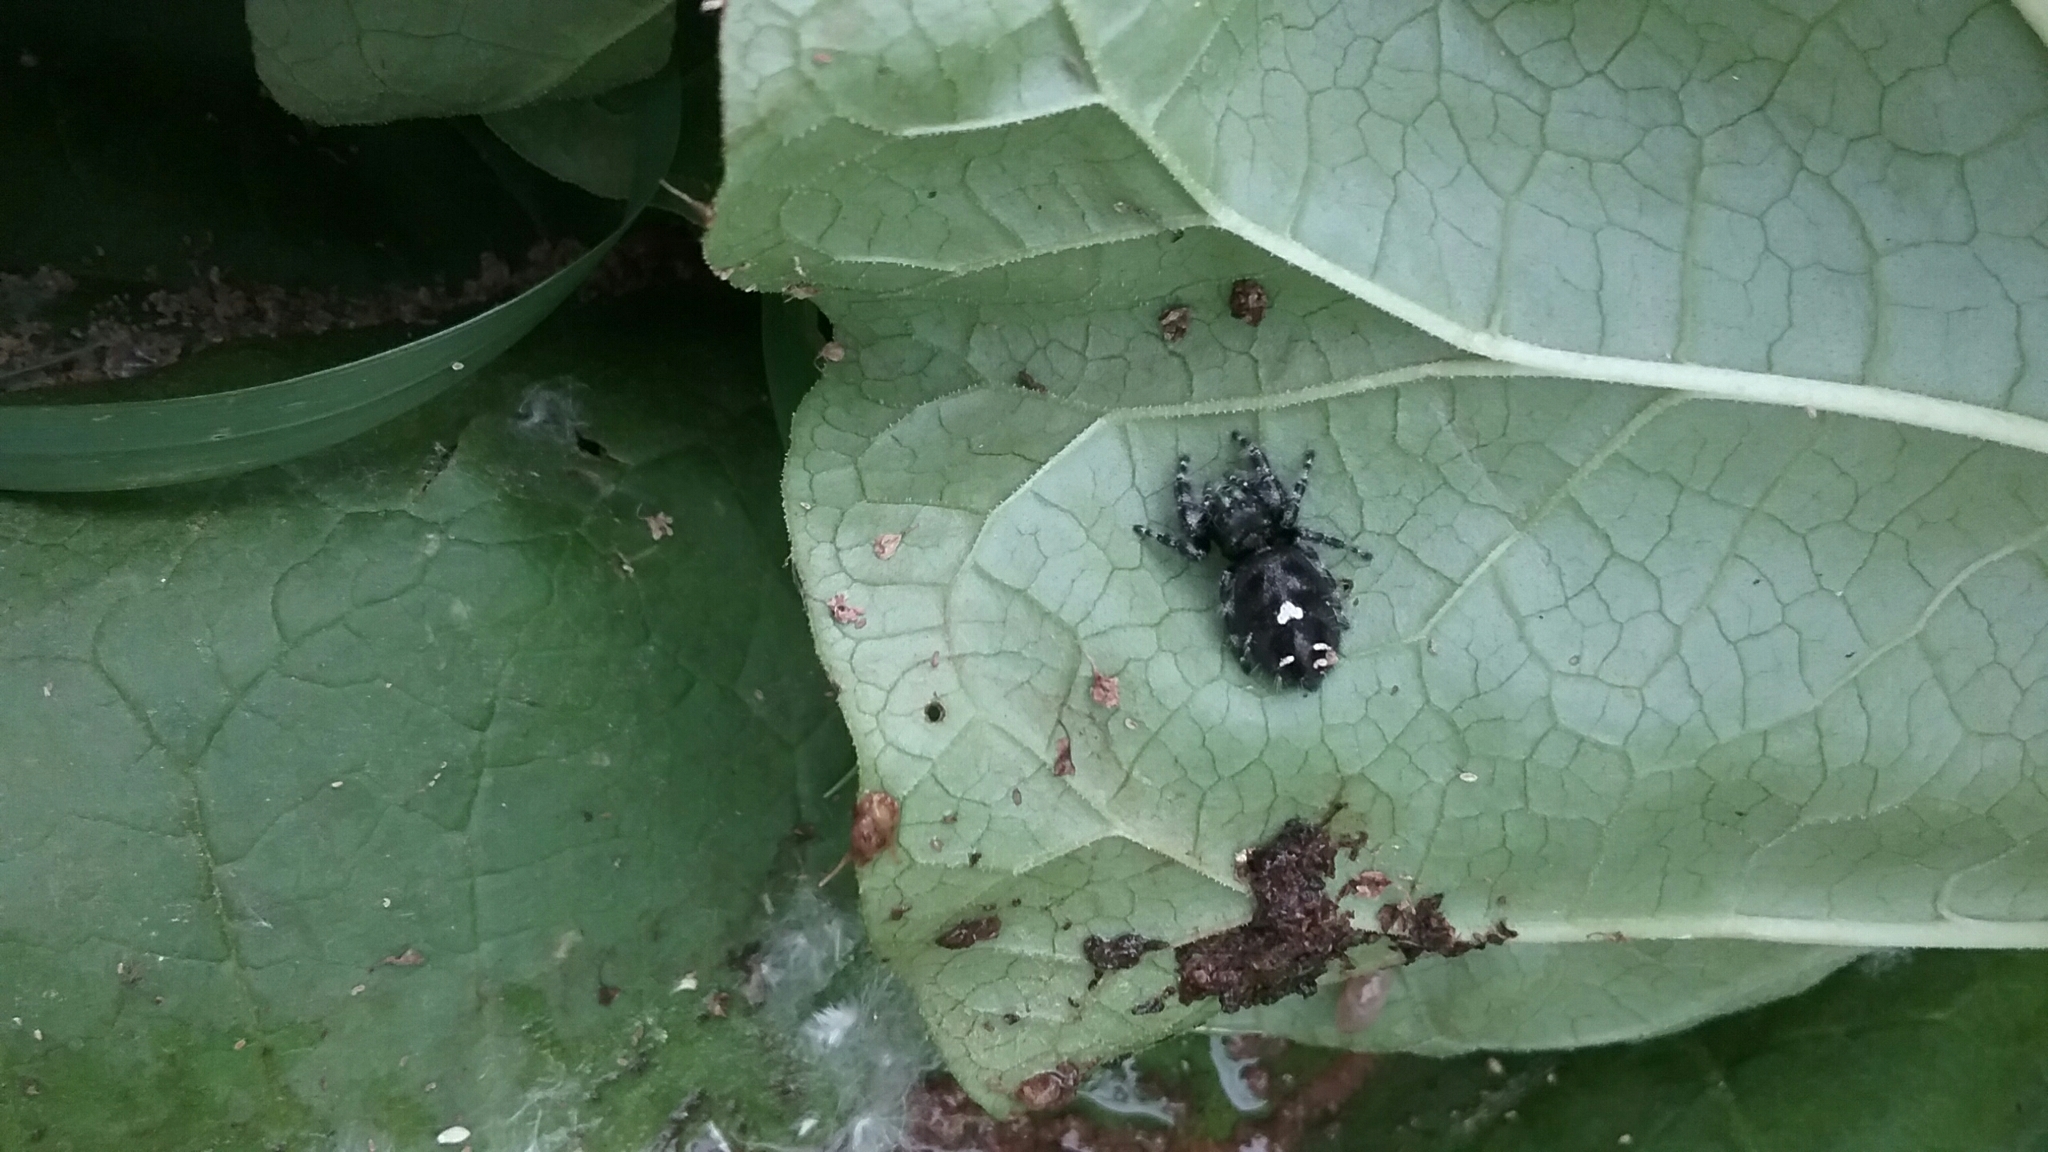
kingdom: Animalia
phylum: Arthropoda
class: Arachnida
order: Araneae
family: Salticidae
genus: Phidippus
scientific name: Phidippus audax
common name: Bold jumper
